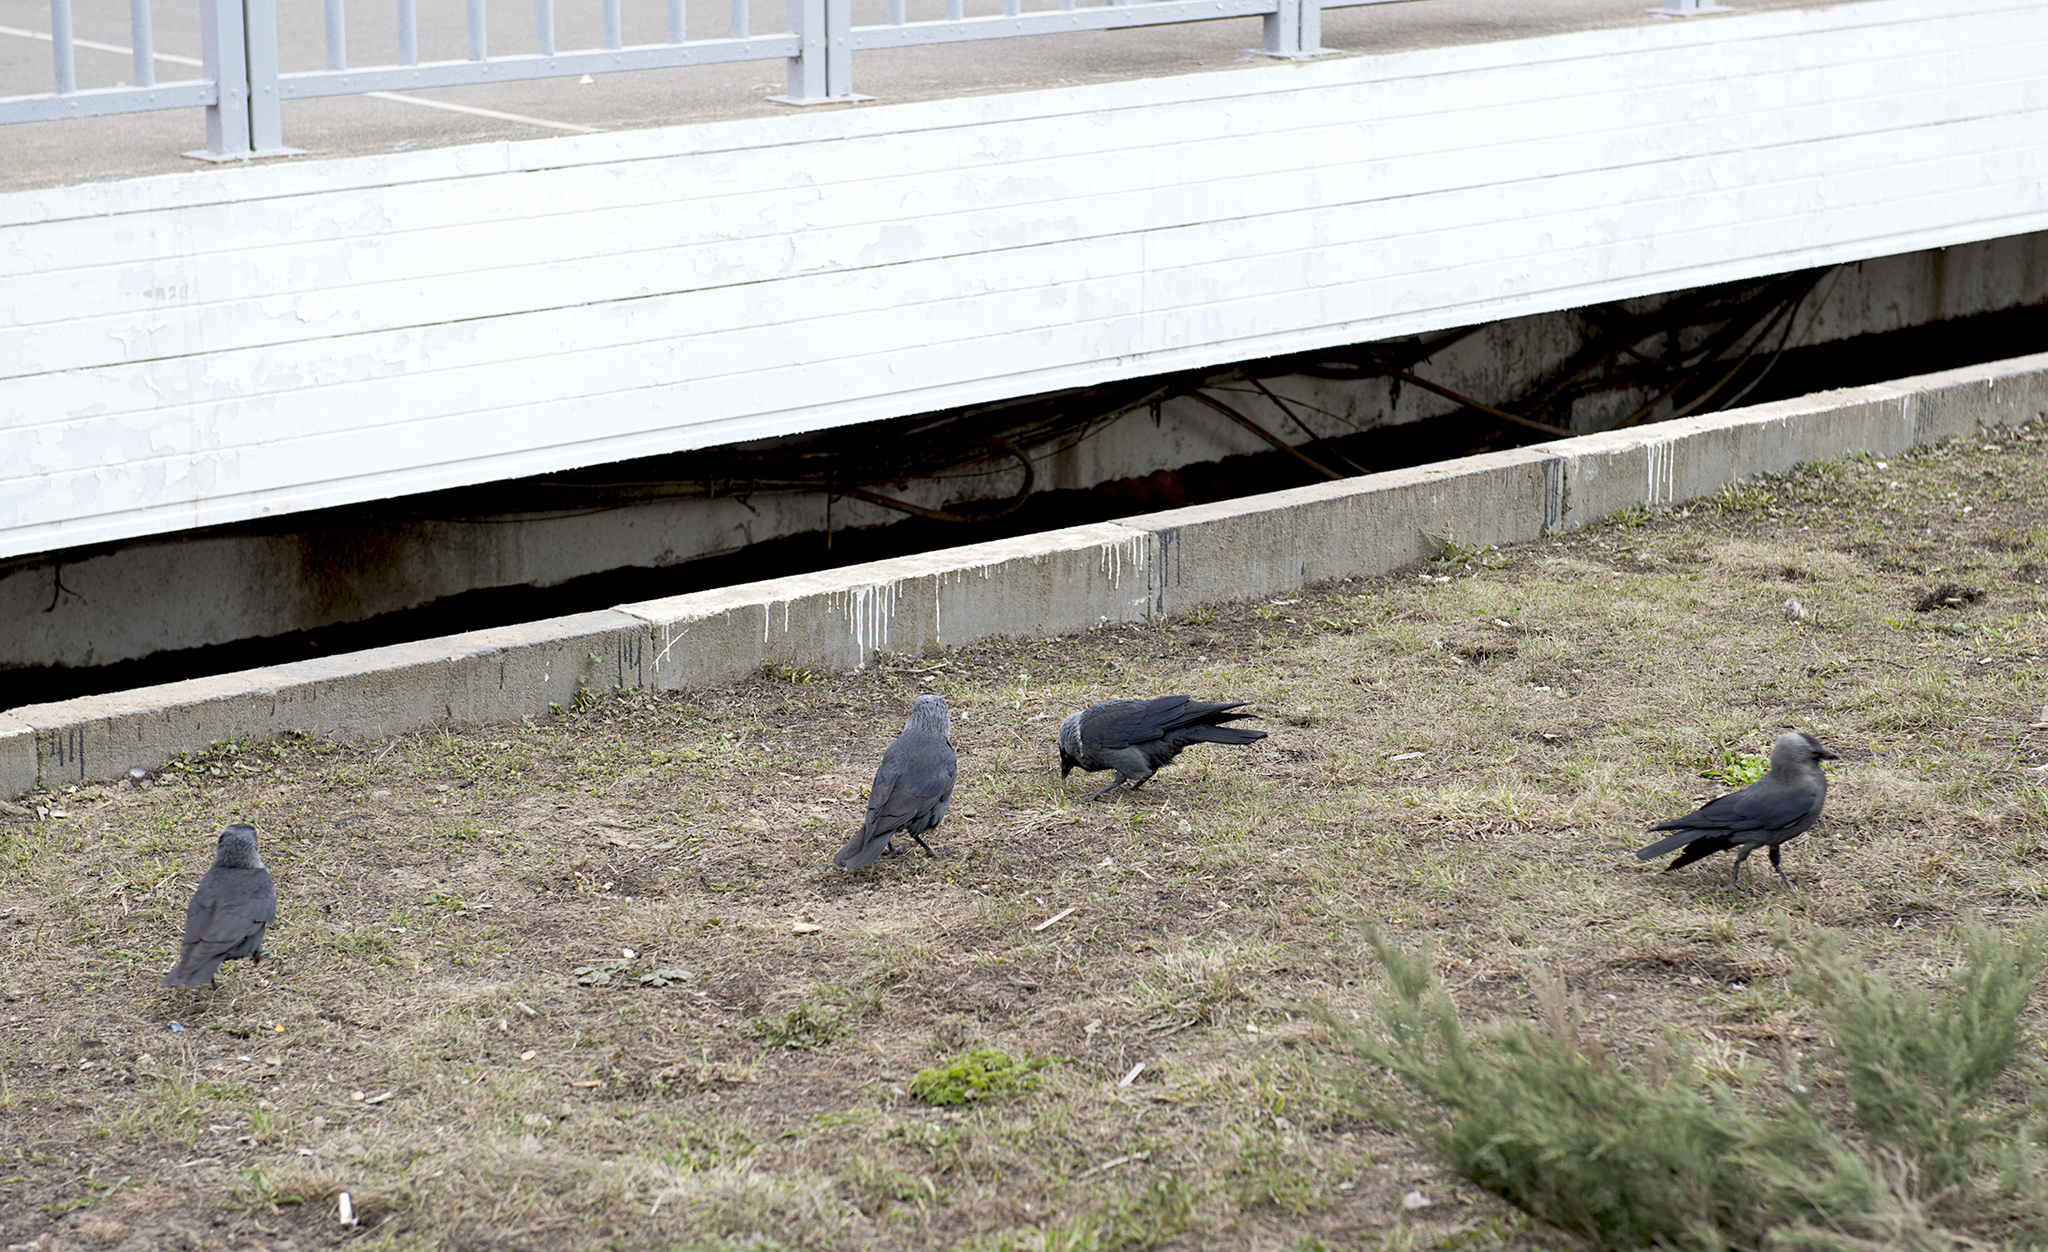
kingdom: Animalia
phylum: Chordata
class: Aves
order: Passeriformes
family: Corvidae
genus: Coloeus
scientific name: Coloeus monedula
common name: Western jackdaw
